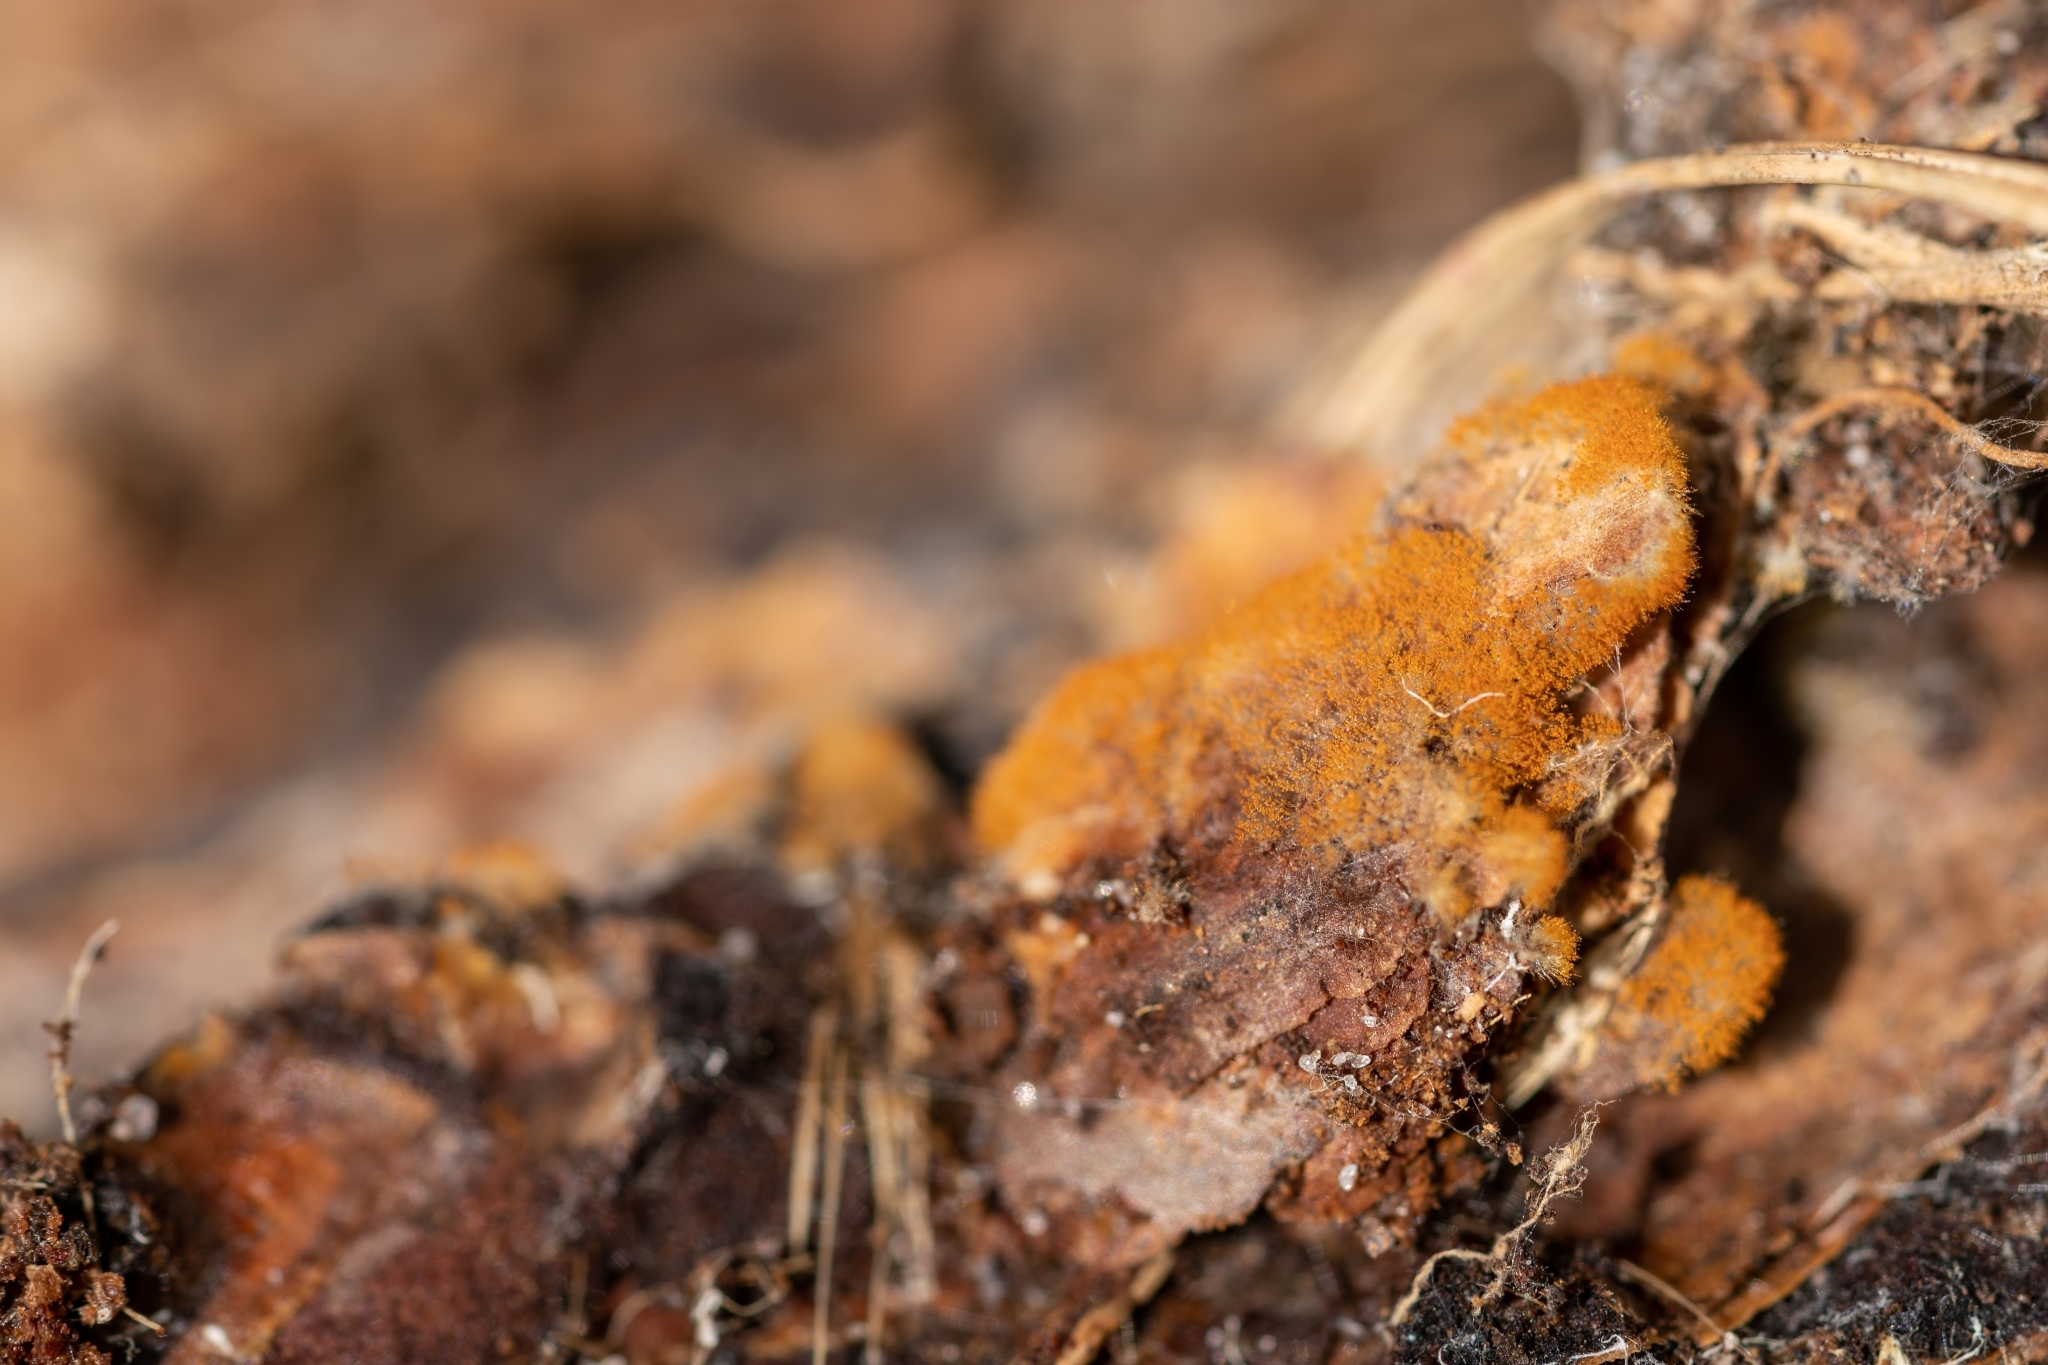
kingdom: Plantae
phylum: Chlorophyta
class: Ulvophyceae
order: Trentepohliales
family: Trentepohliaceae
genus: Trentepohlia
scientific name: Trentepohlia aurea
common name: Orange rock hair
